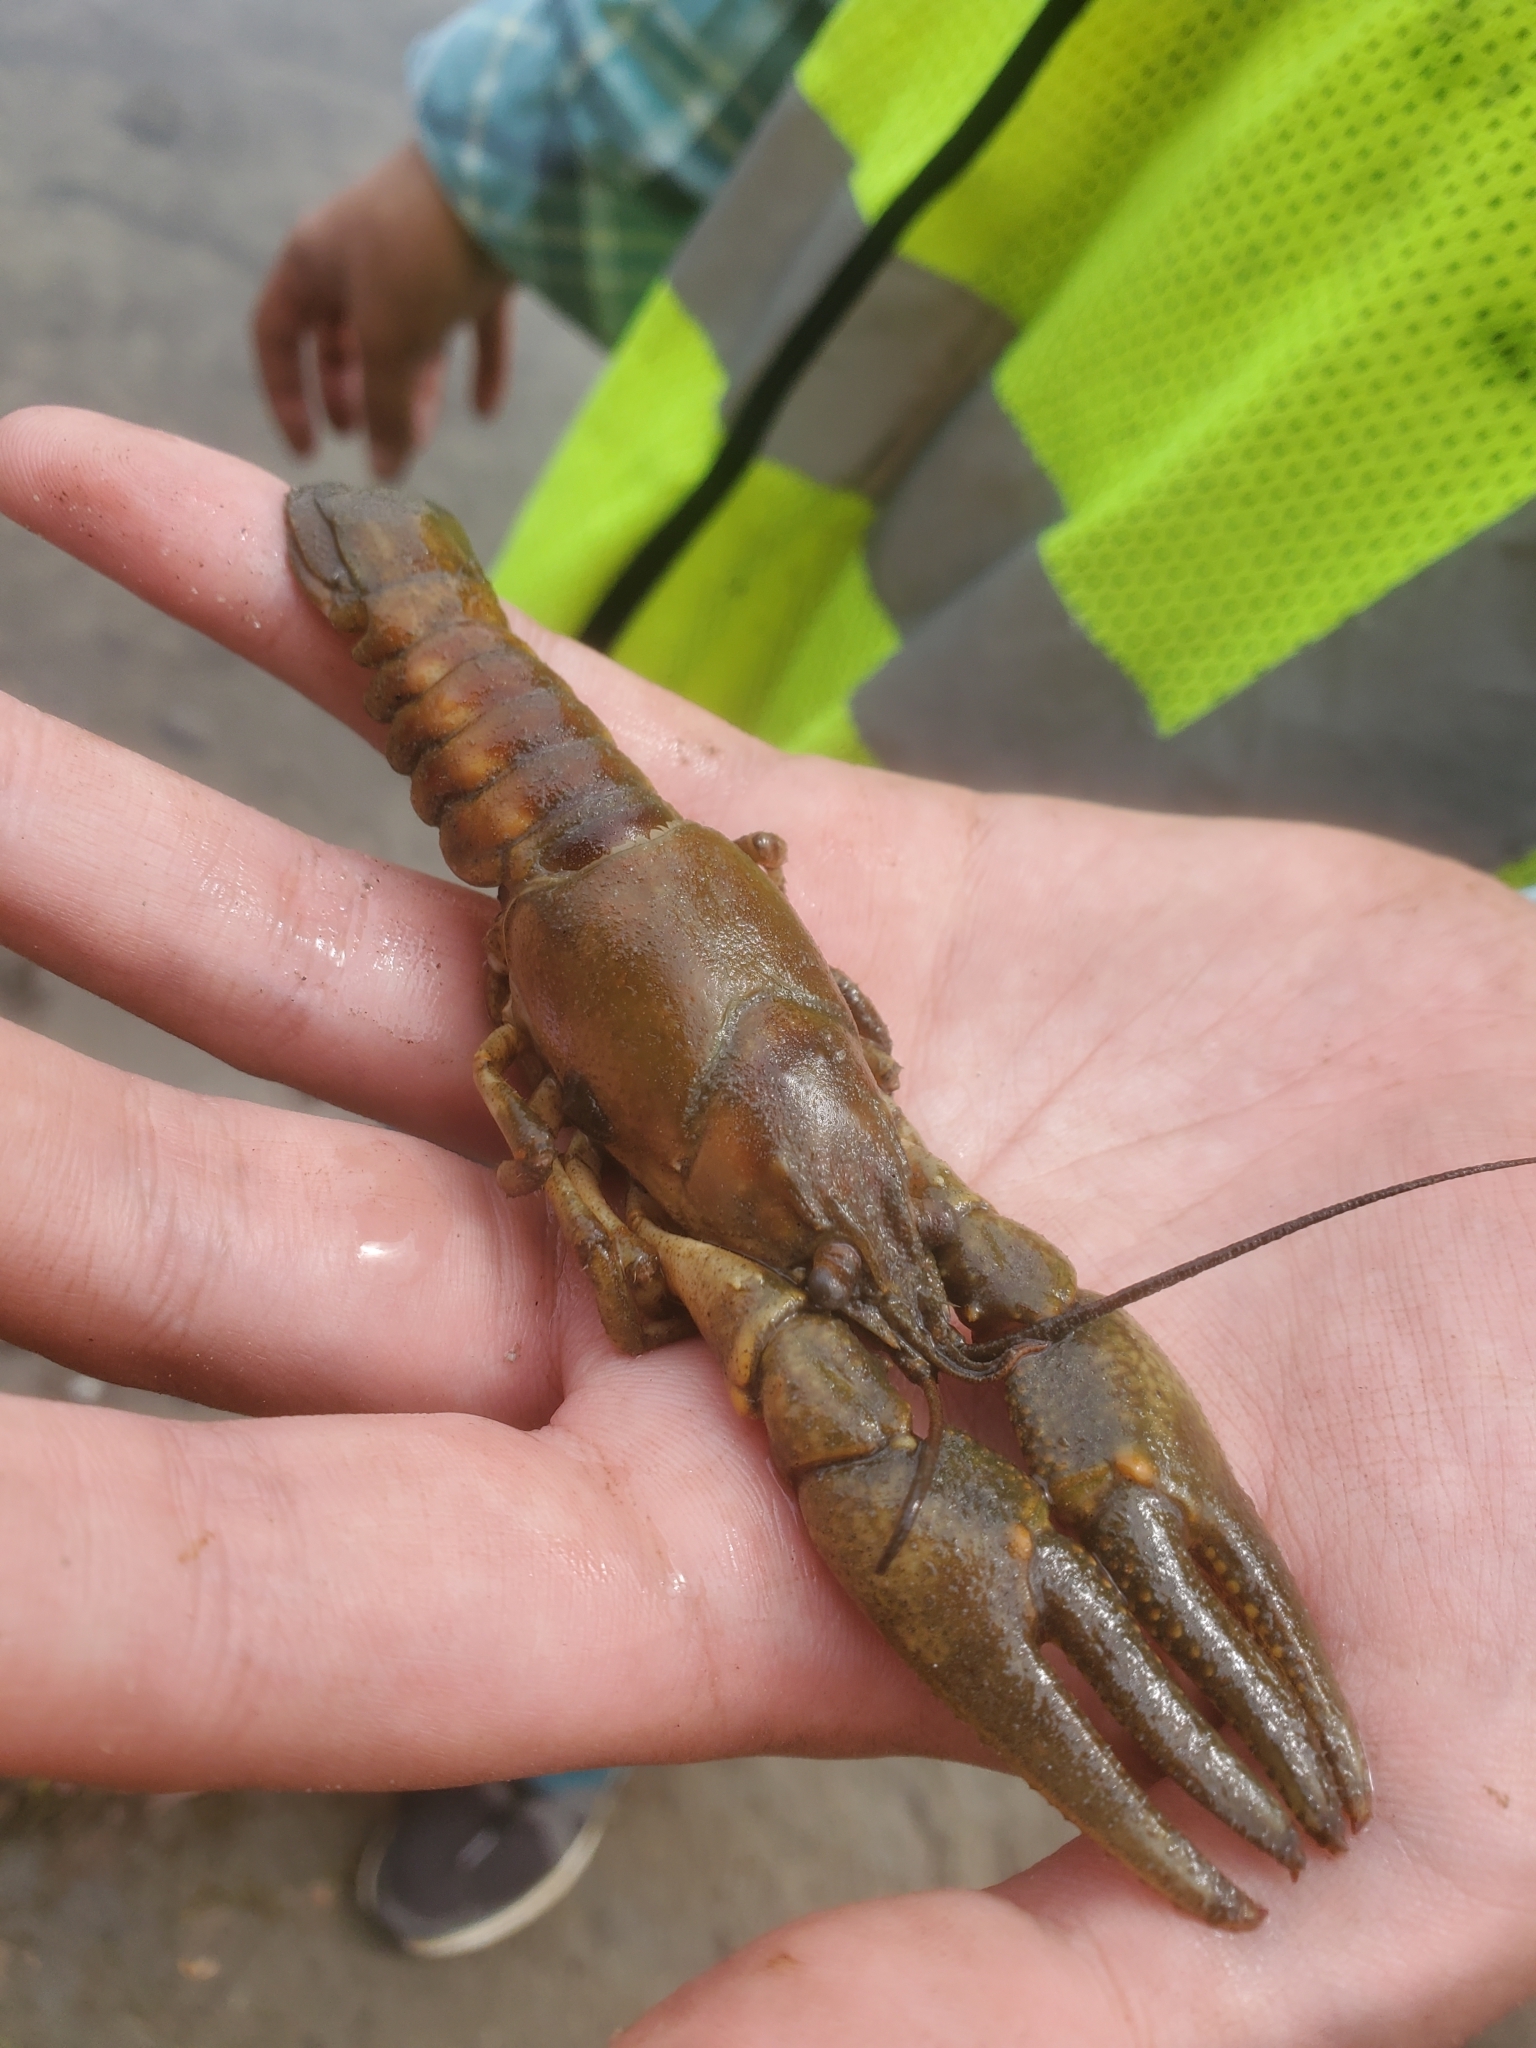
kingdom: Animalia
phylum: Arthropoda
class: Malacostraca
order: Decapoda
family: Cambaridae
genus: Faxonius
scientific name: Faxonius rusticus
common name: Rusty crayfish
